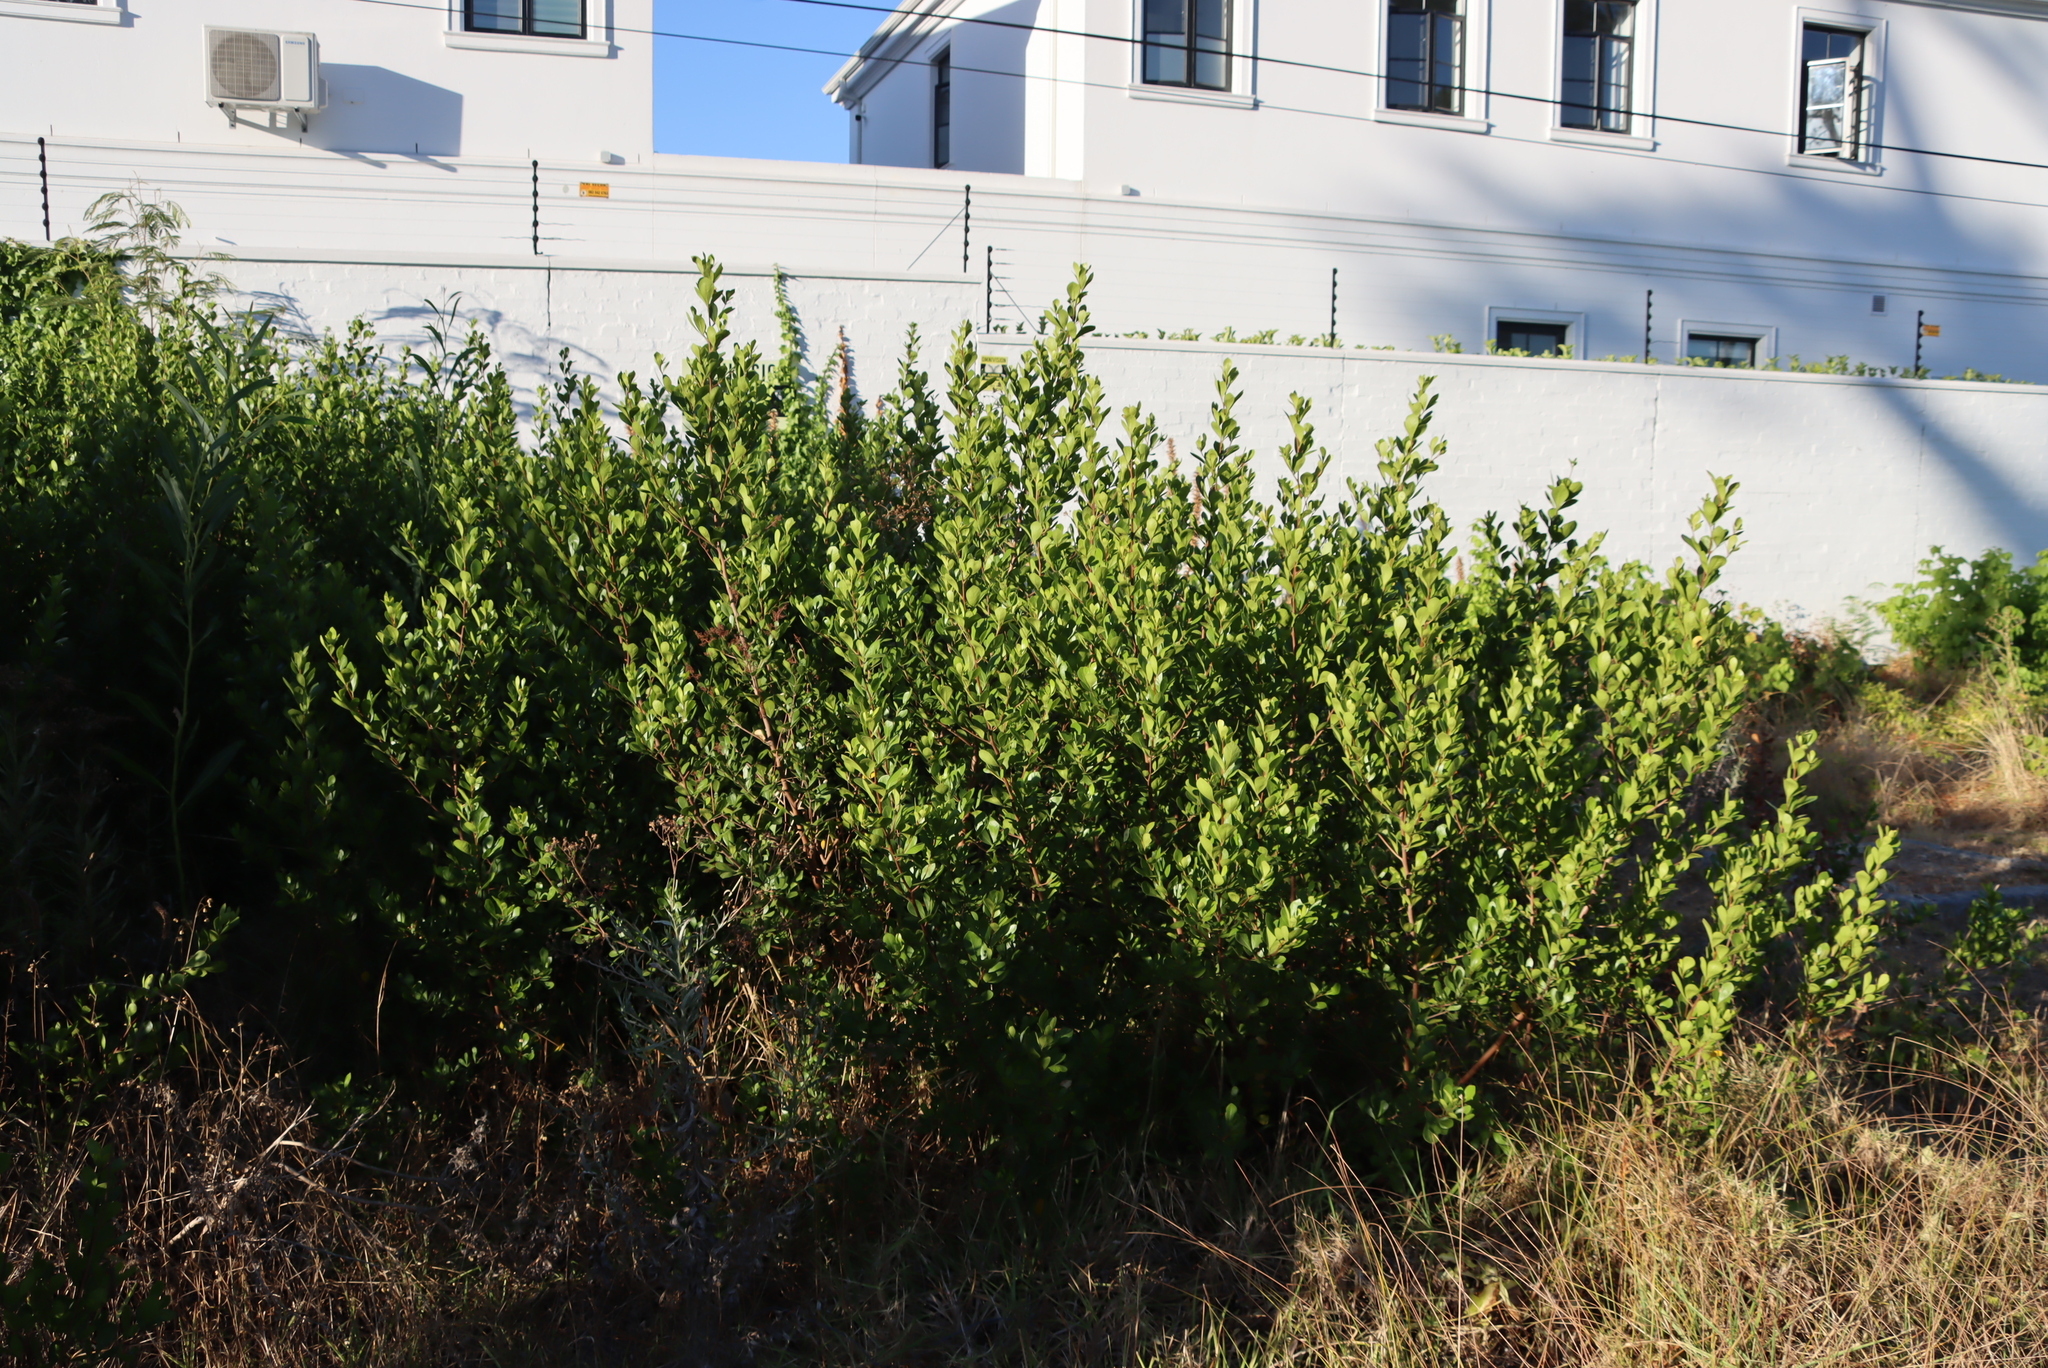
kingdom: Plantae
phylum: Tracheophyta
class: Magnoliopsida
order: Sapindales
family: Anacardiaceae
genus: Searsia
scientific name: Searsia lucida
